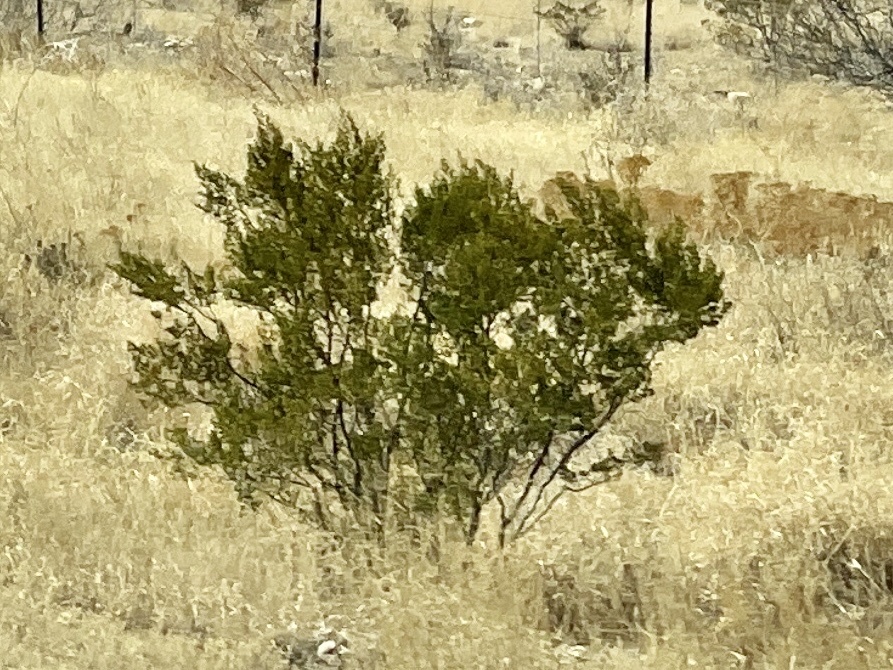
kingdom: Plantae
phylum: Tracheophyta
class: Magnoliopsida
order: Zygophyllales
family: Zygophyllaceae
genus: Larrea
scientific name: Larrea tridentata
